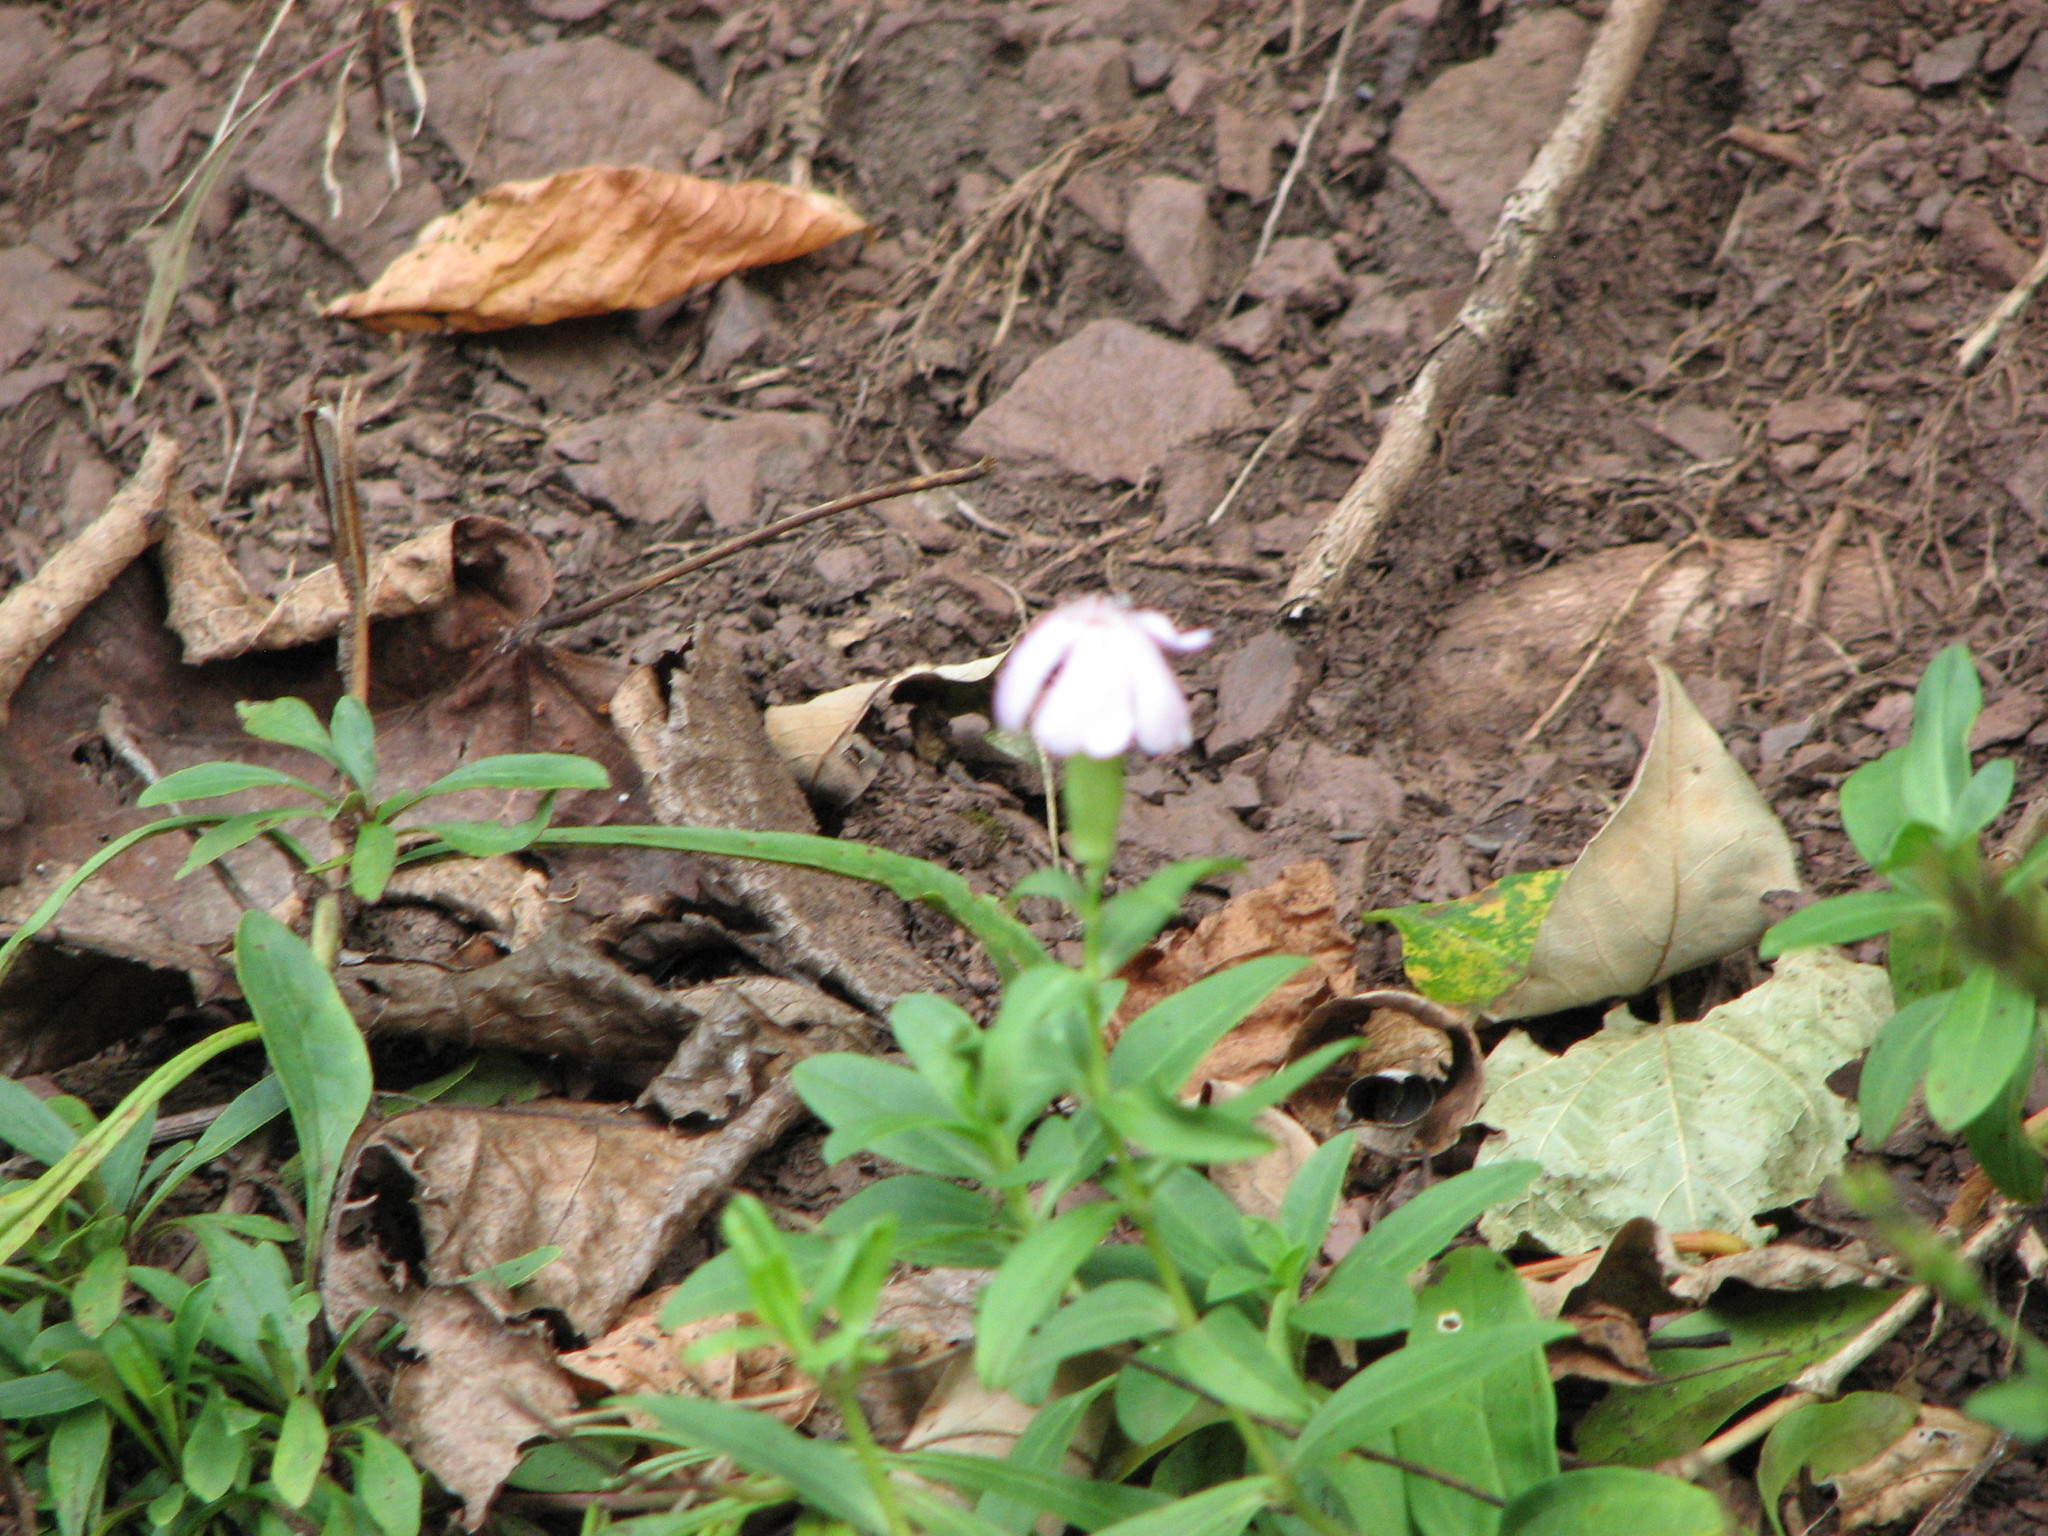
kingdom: Plantae
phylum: Tracheophyta
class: Magnoliopsida
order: Caryophyllales
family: Caryophyllaceae
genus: Saponaria
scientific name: Saponaria officinalis
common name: Soapwort
